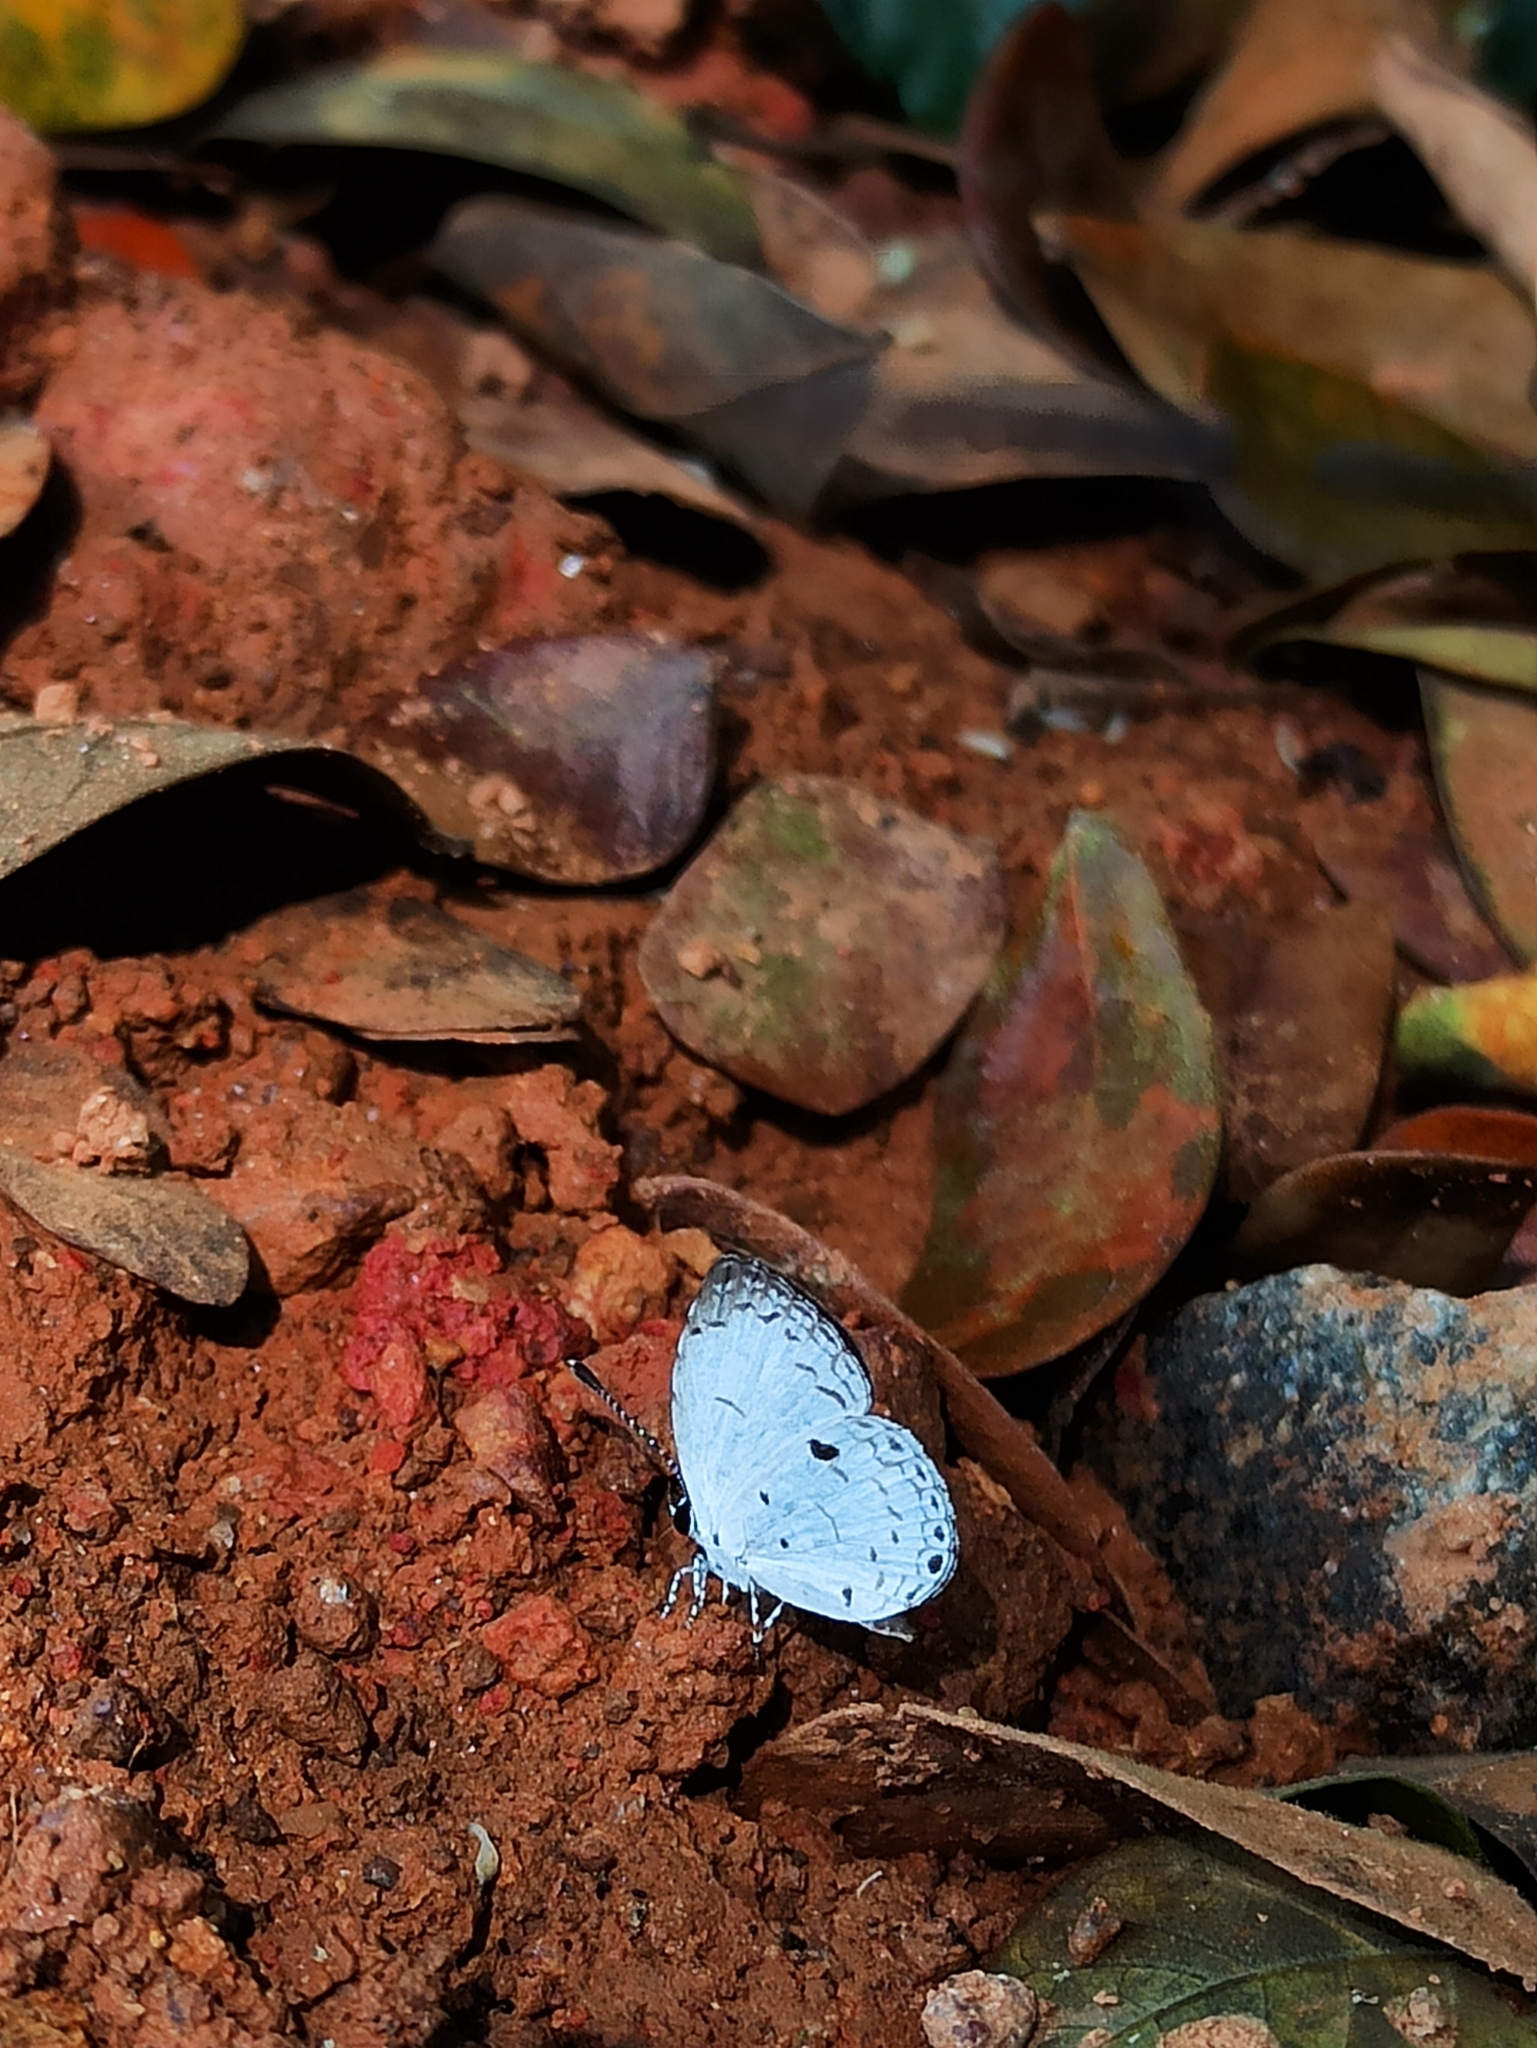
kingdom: Animalia
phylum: Arthropoda
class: Insecta
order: Lepidoptera
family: Lycaenidae
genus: Neopithecops
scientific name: Neopithecops zalmora
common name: Quaker
